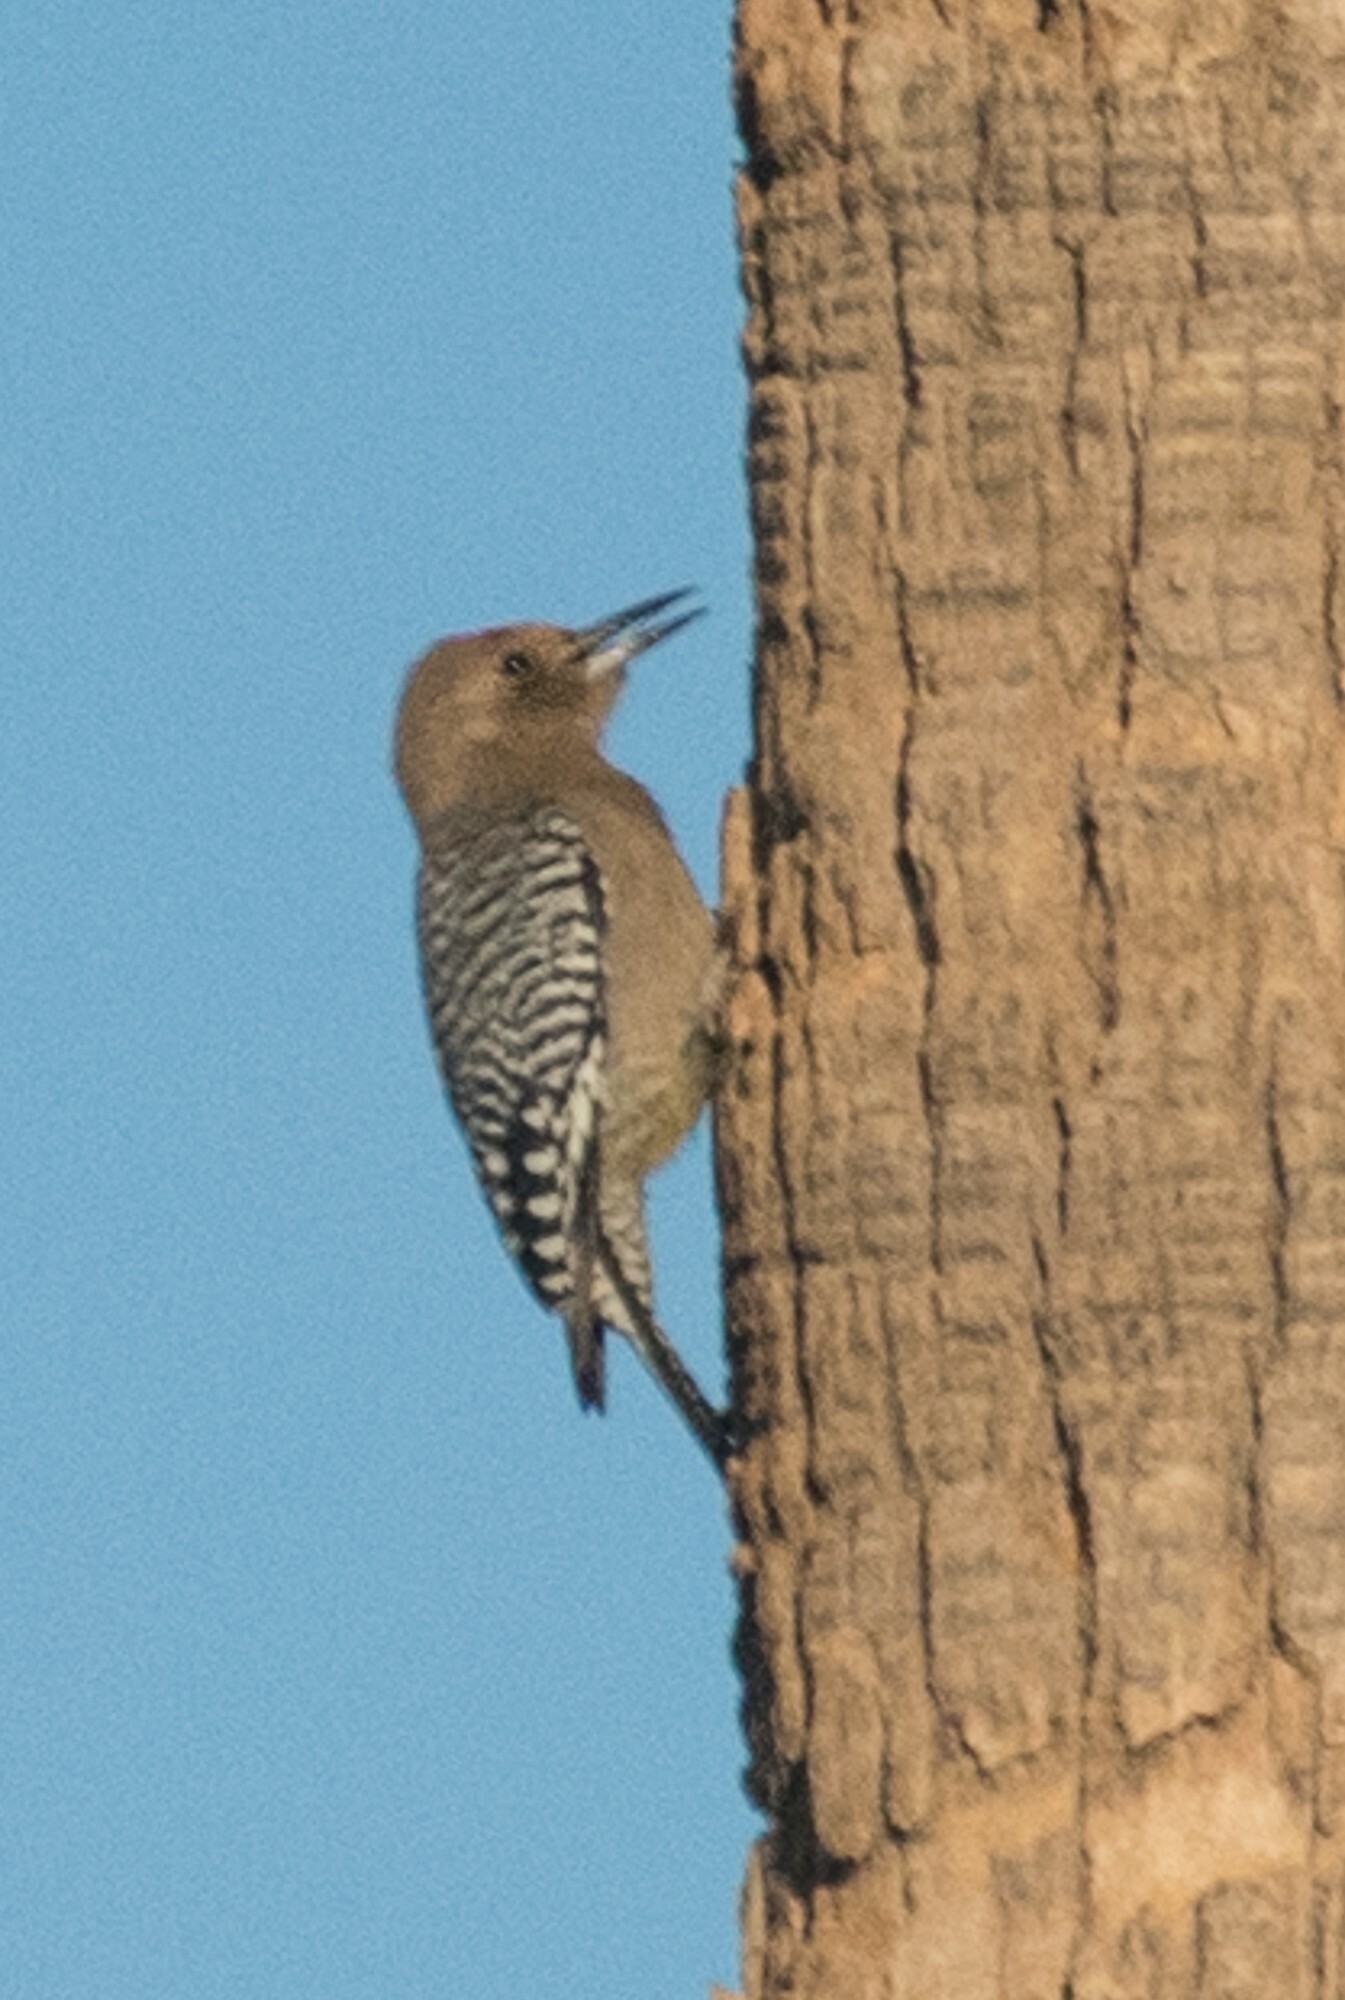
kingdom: Animalia
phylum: Chordata
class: Aves
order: Piciformes
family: Picidae
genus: Melanerpes
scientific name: Melanerpes uropygialis
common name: Gila woodpecker
